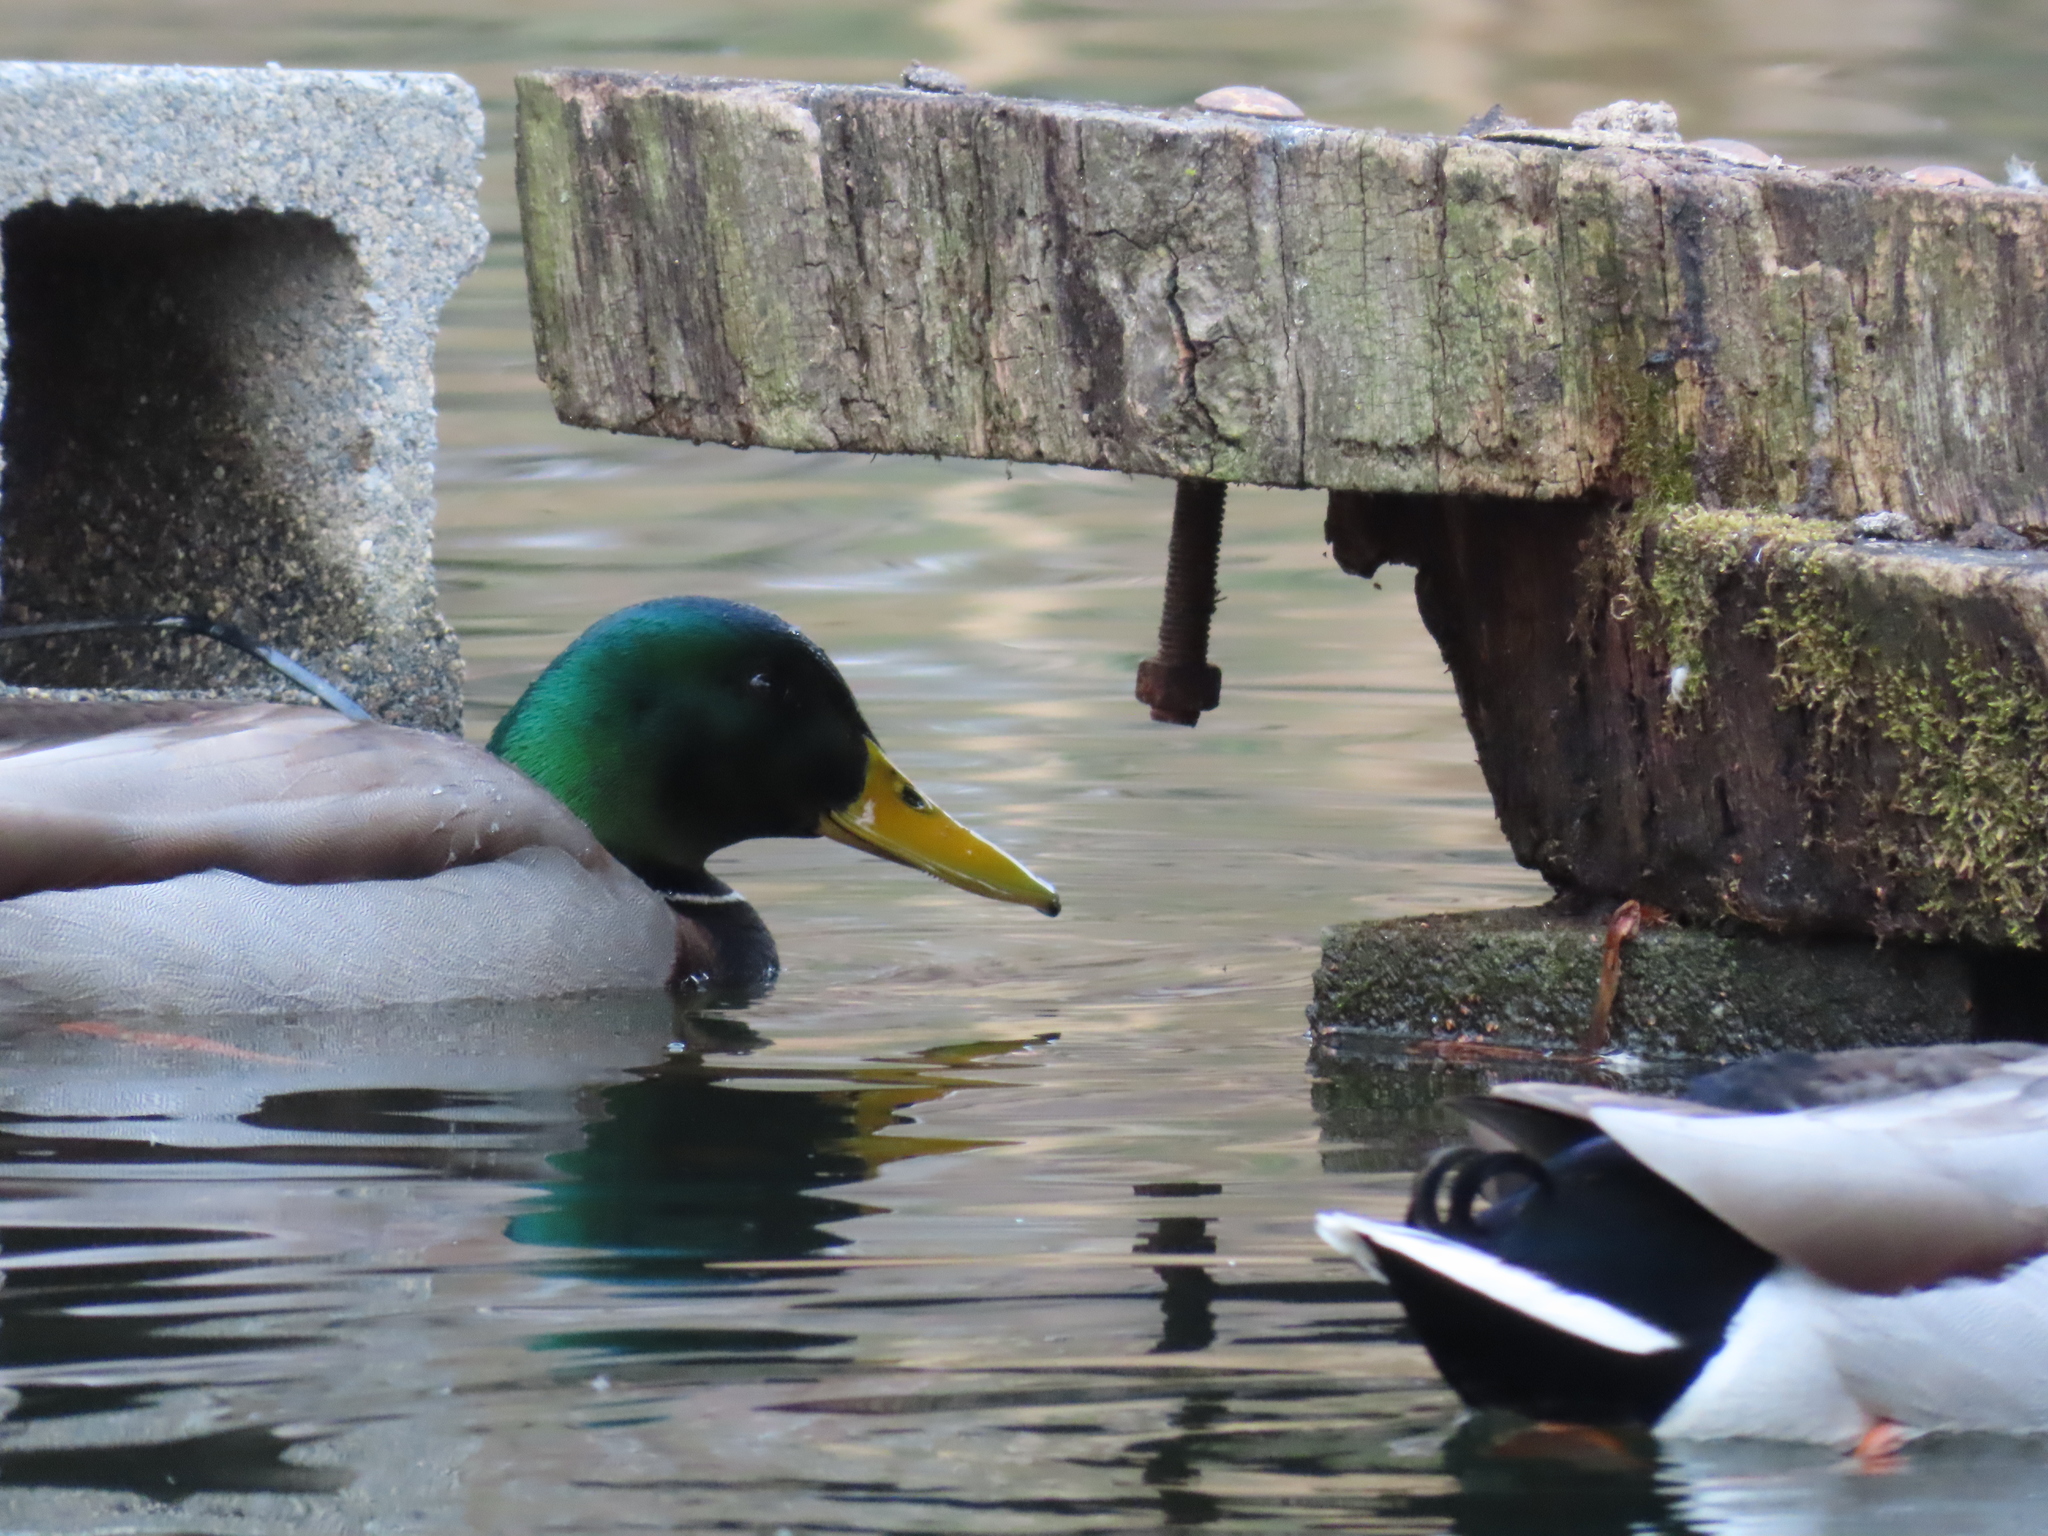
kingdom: Animalia
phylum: Chordata
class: Aves
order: Anseriformes
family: Anatidae
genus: Anas
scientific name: Anas platyrhynchos
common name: Mallard
